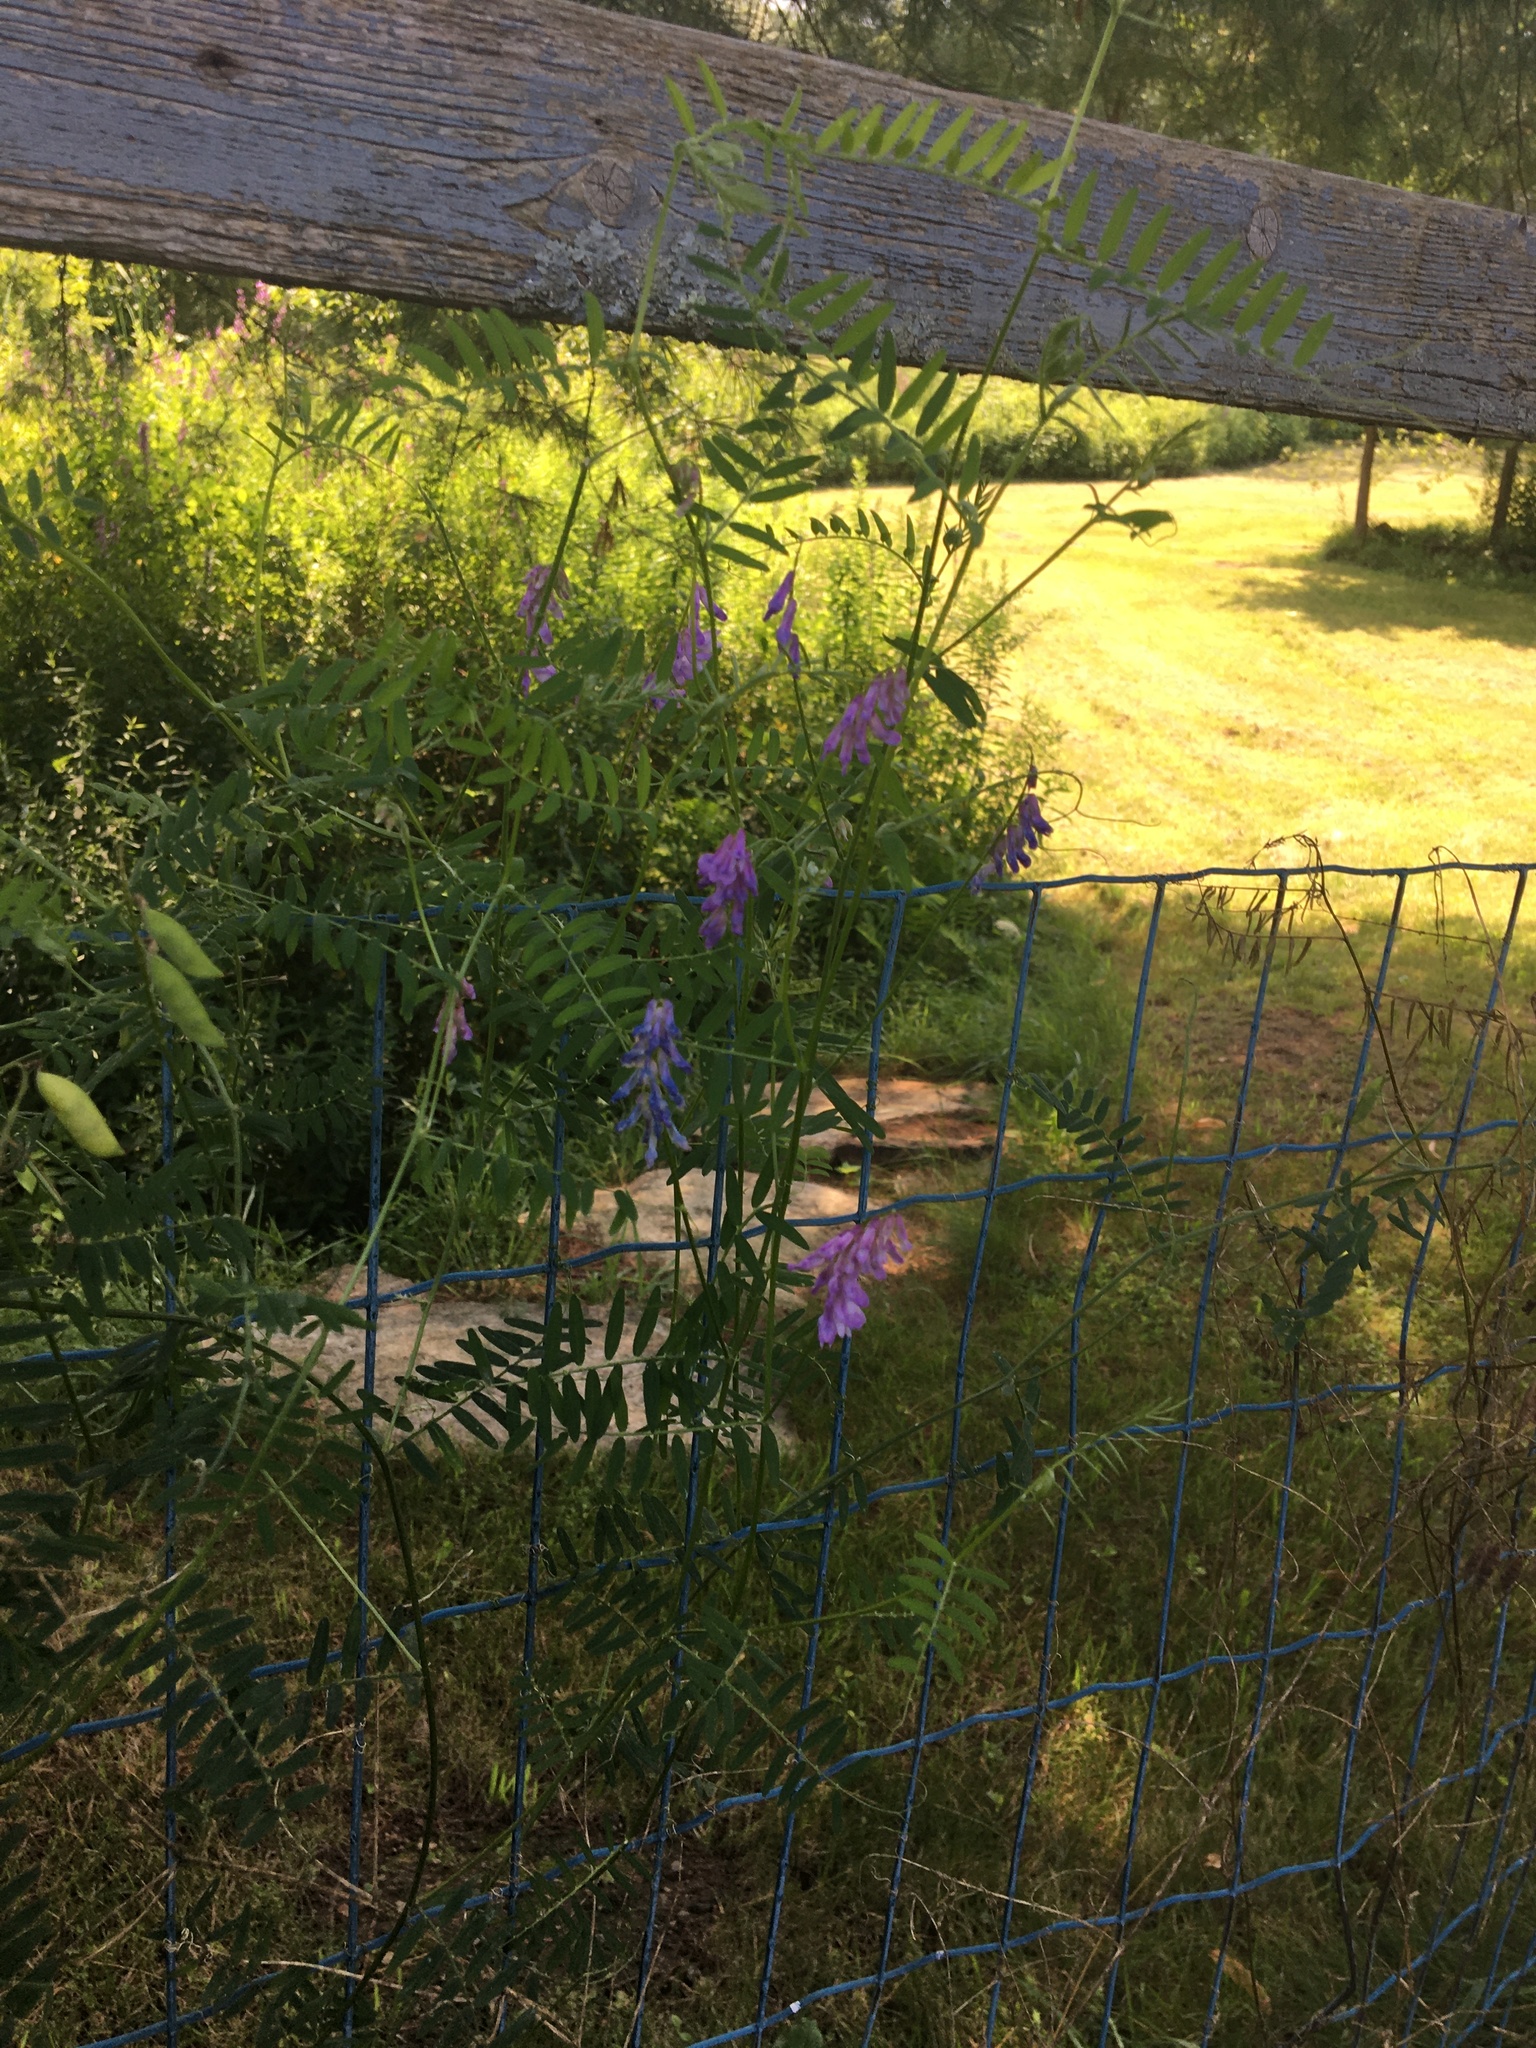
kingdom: Plantae
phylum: Tracheophyta
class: Magnoliopsida
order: Fabales
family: Fabaceae
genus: Vicia
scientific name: Vicia cracca
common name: Bird vetch
